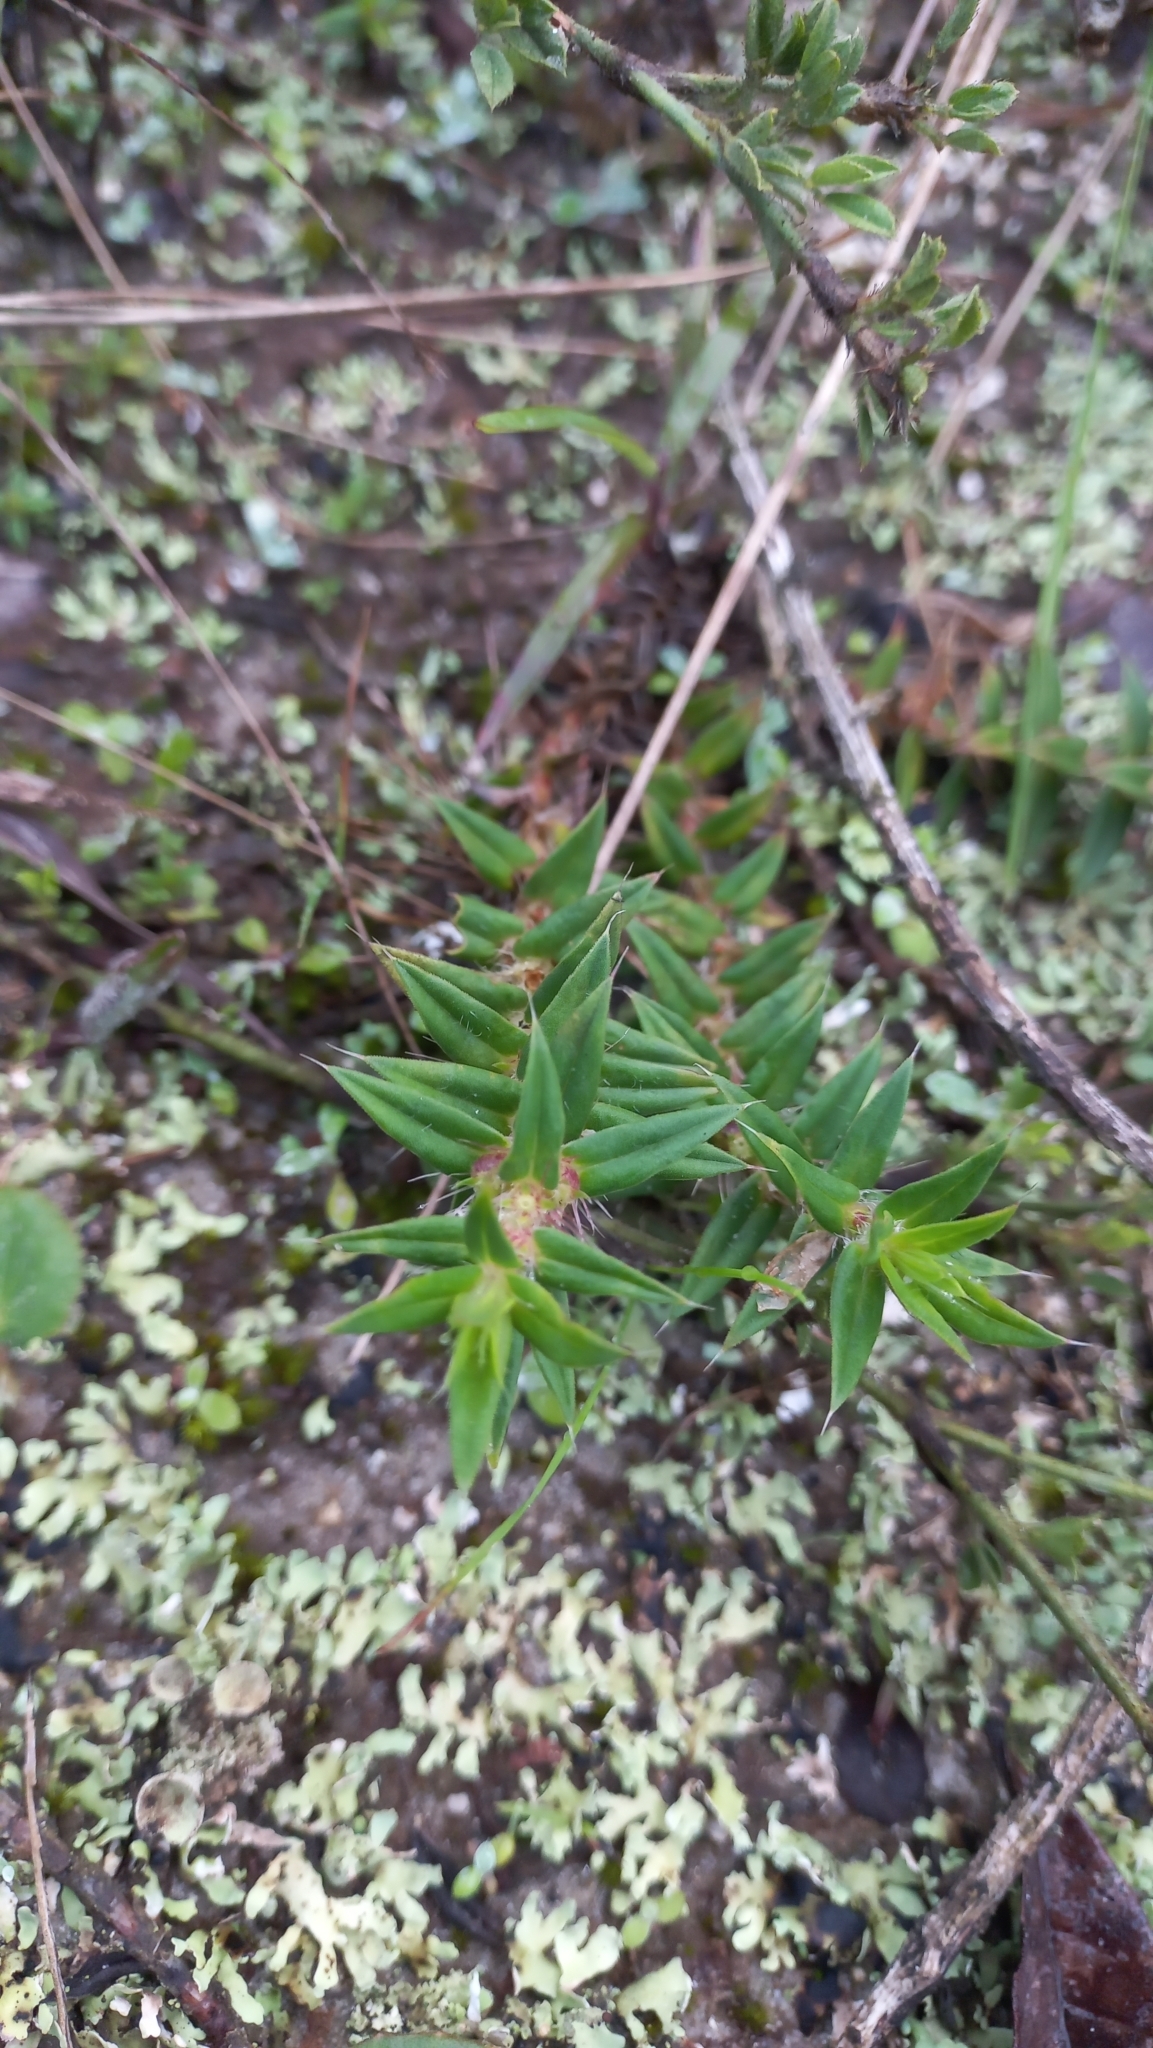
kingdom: Plantae
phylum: Tracheophyta
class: Magnoliopsida
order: Gentianales
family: Rubiaceae
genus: Hexasepalum
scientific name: Hexasepalum apiculatum
